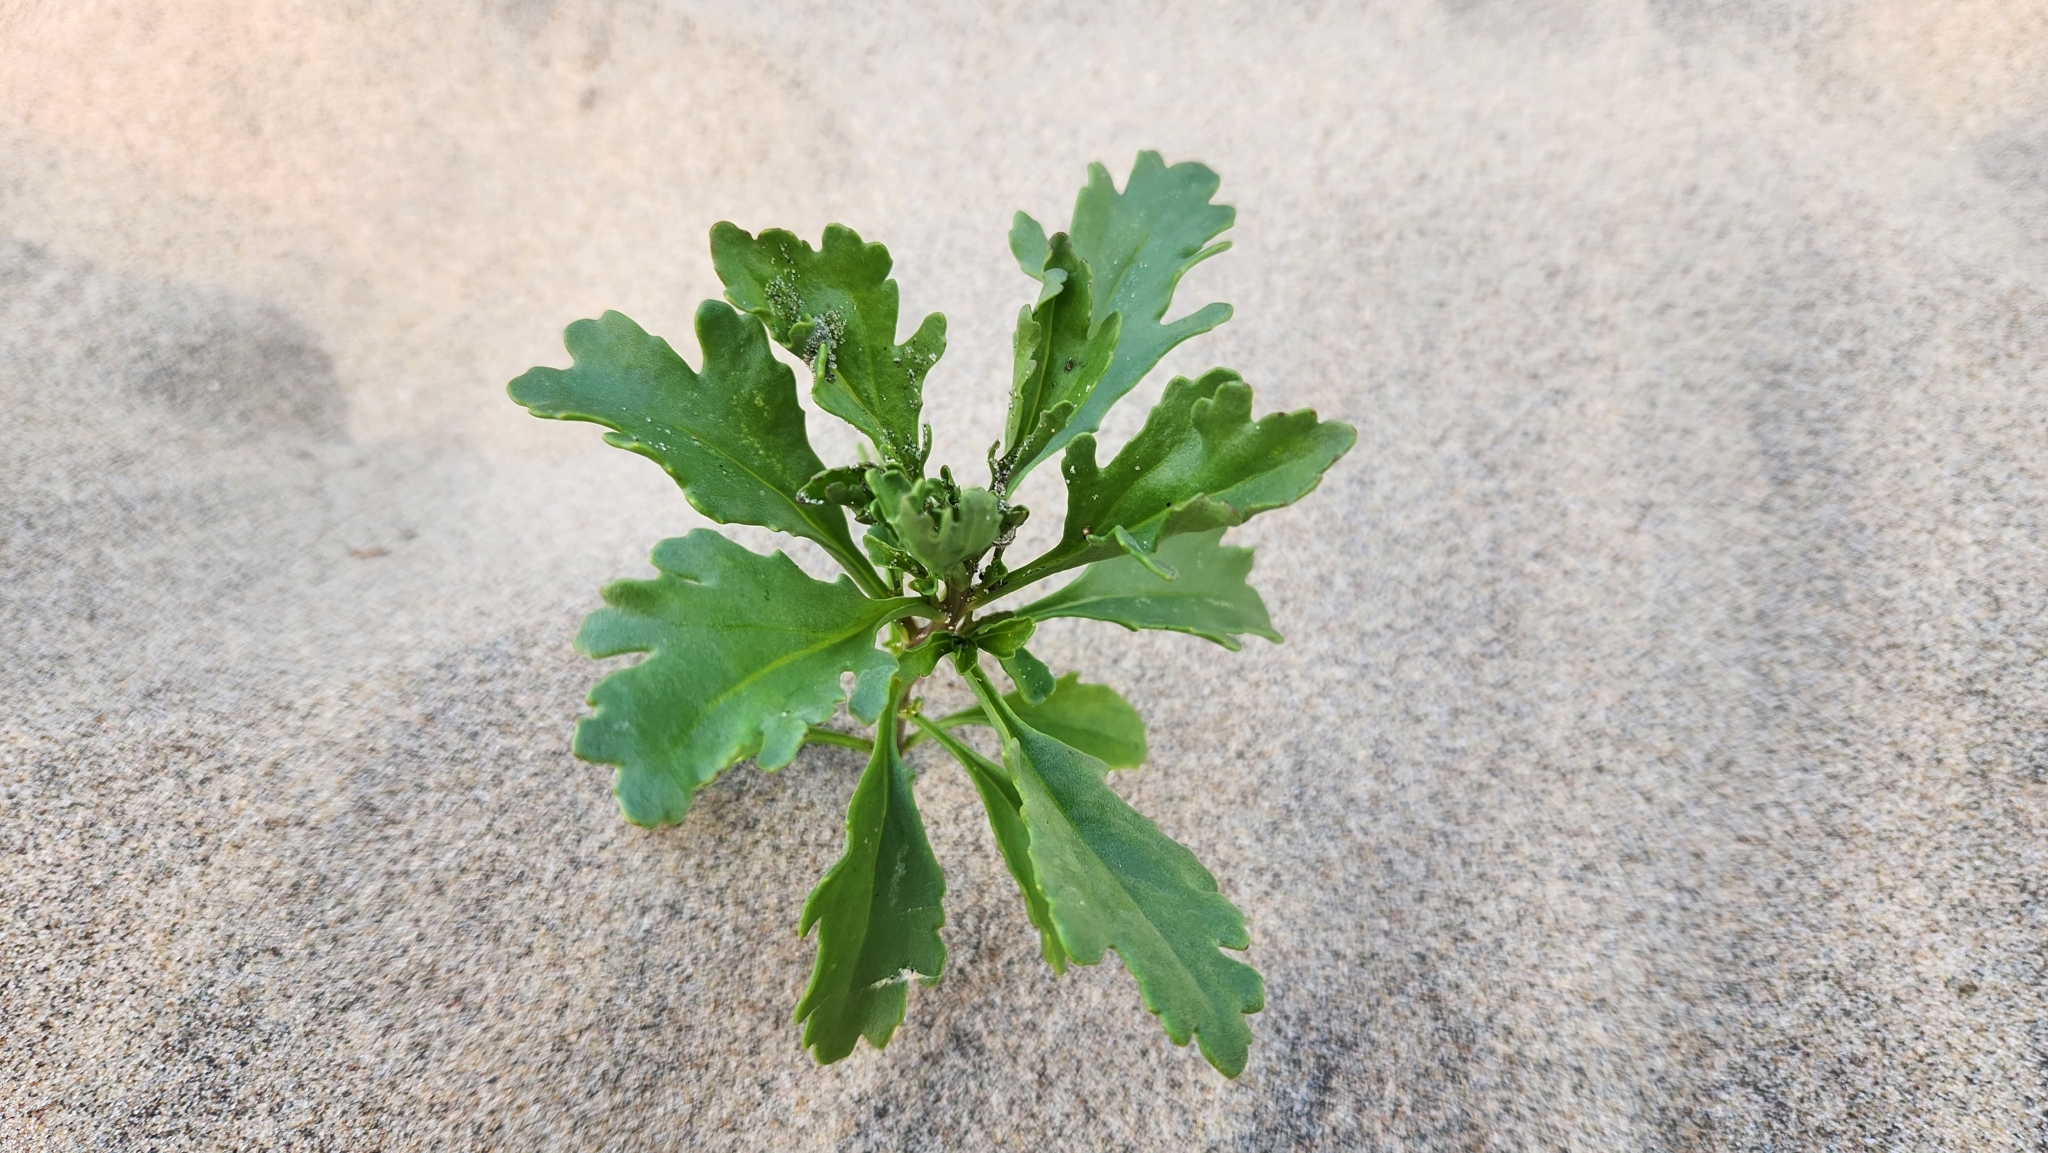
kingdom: Plantae
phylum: Tracheophyta
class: Magnoliopsida
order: Brassicales
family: Brassicaceae
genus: Cakile
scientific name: Cakile edentula
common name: American sea rocket
